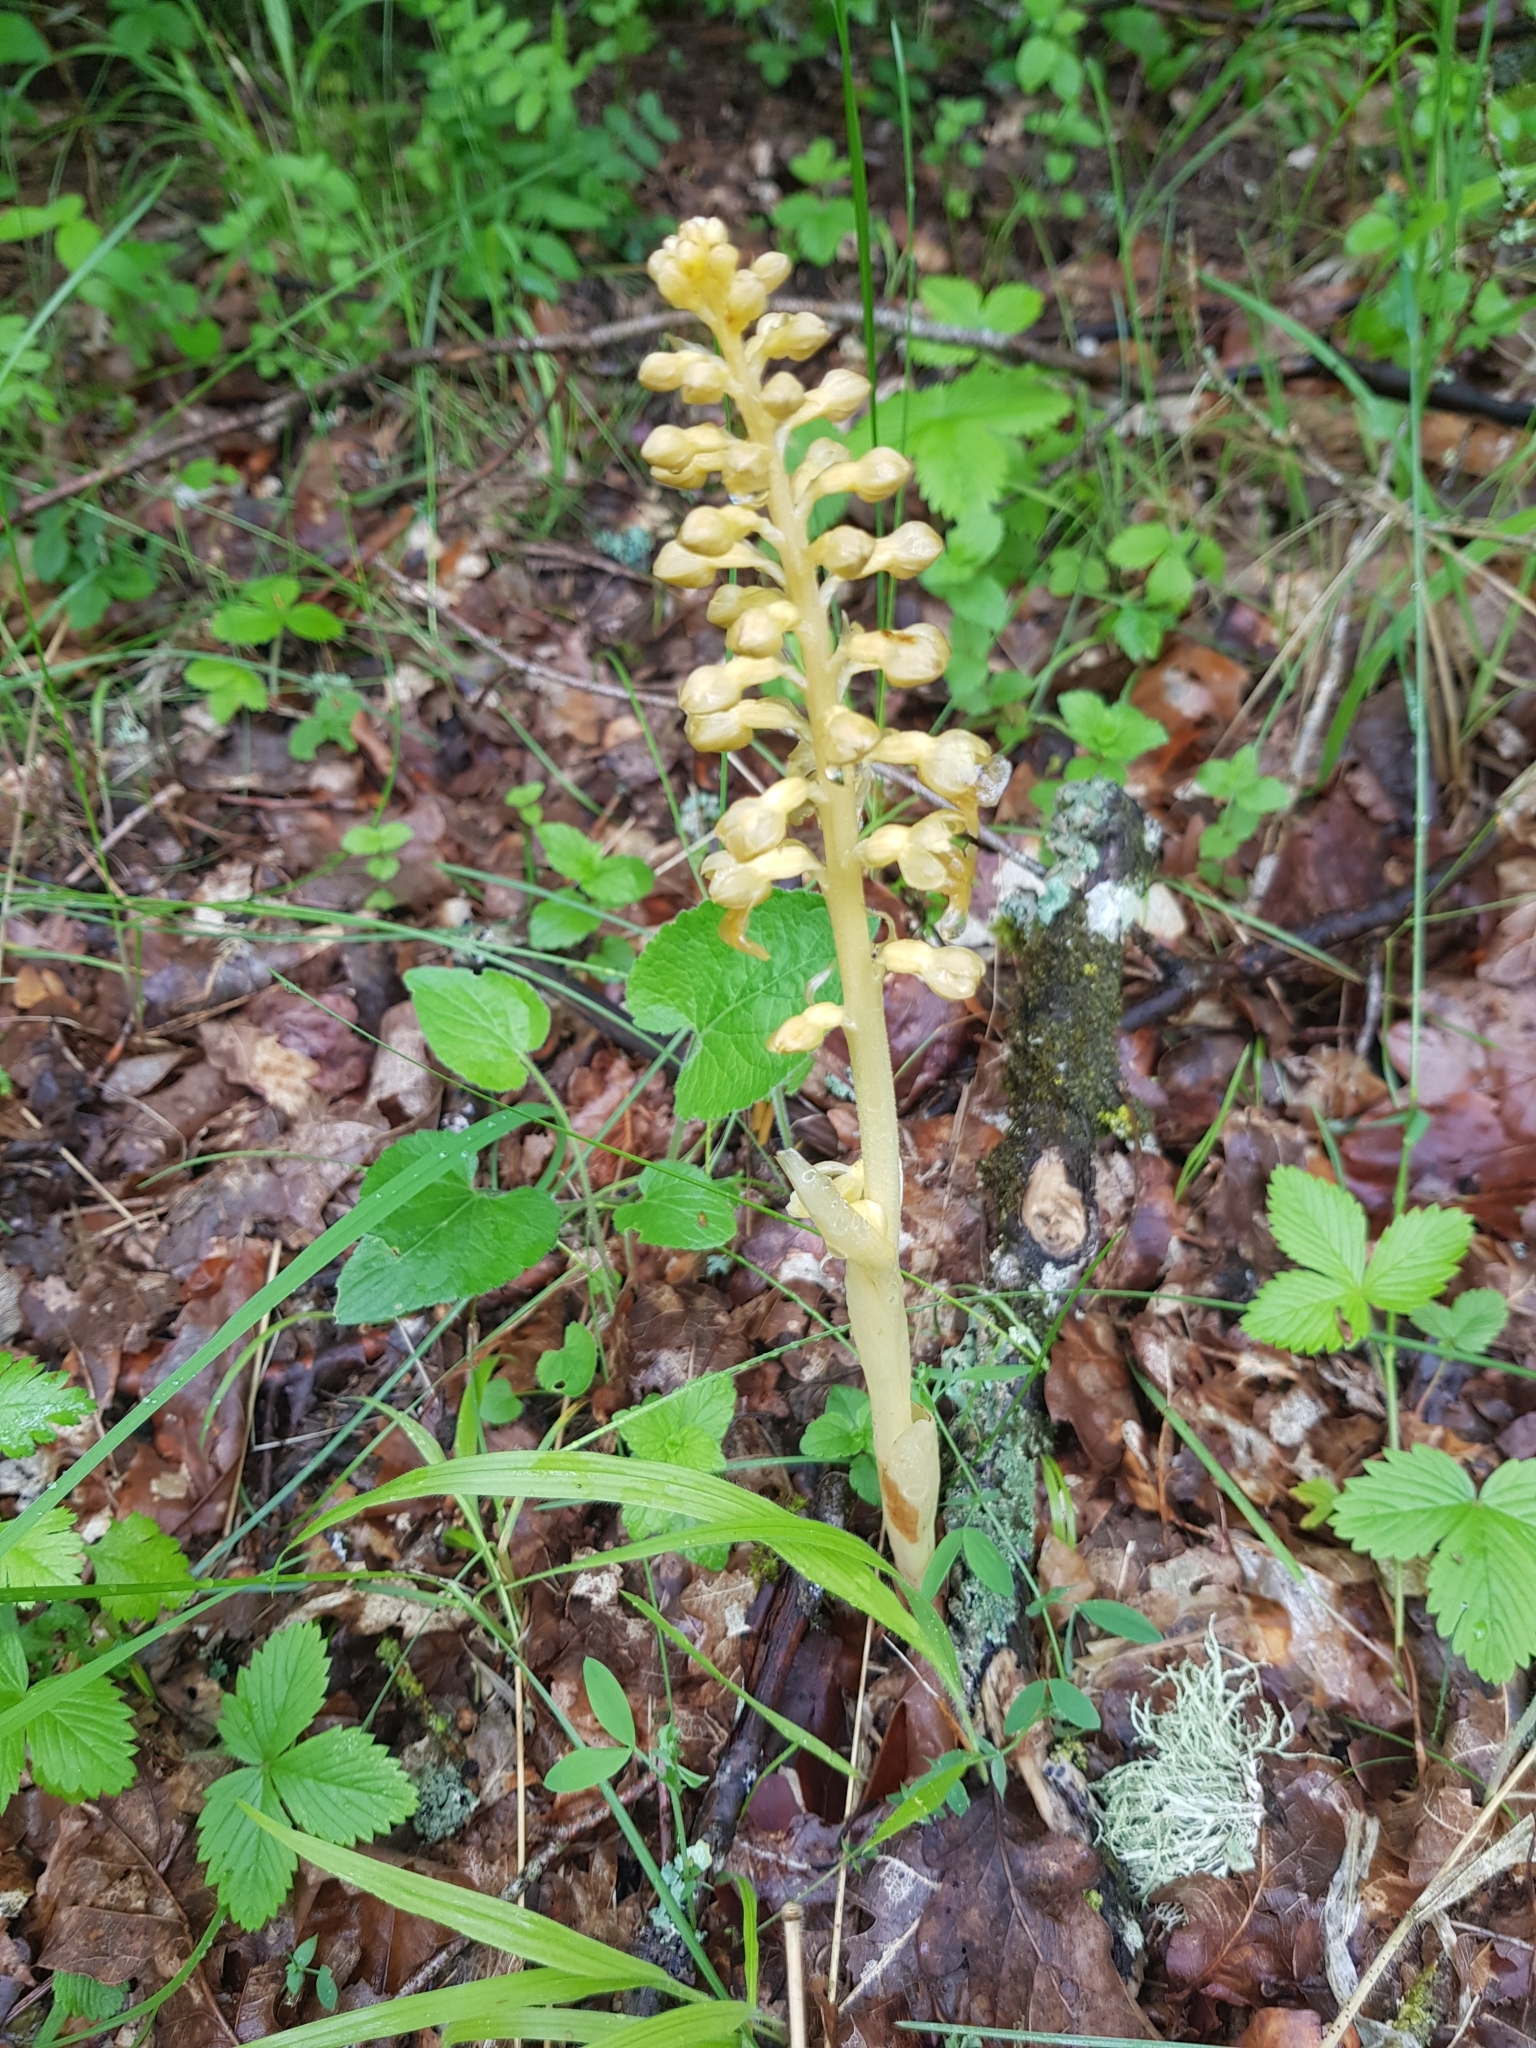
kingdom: Plantae
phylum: Tracheophyta
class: Liliopsida
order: Asparagales
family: Orchidaceae
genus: Neottia
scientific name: Neottia nidus-avis
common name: Bird's-nest orchid
